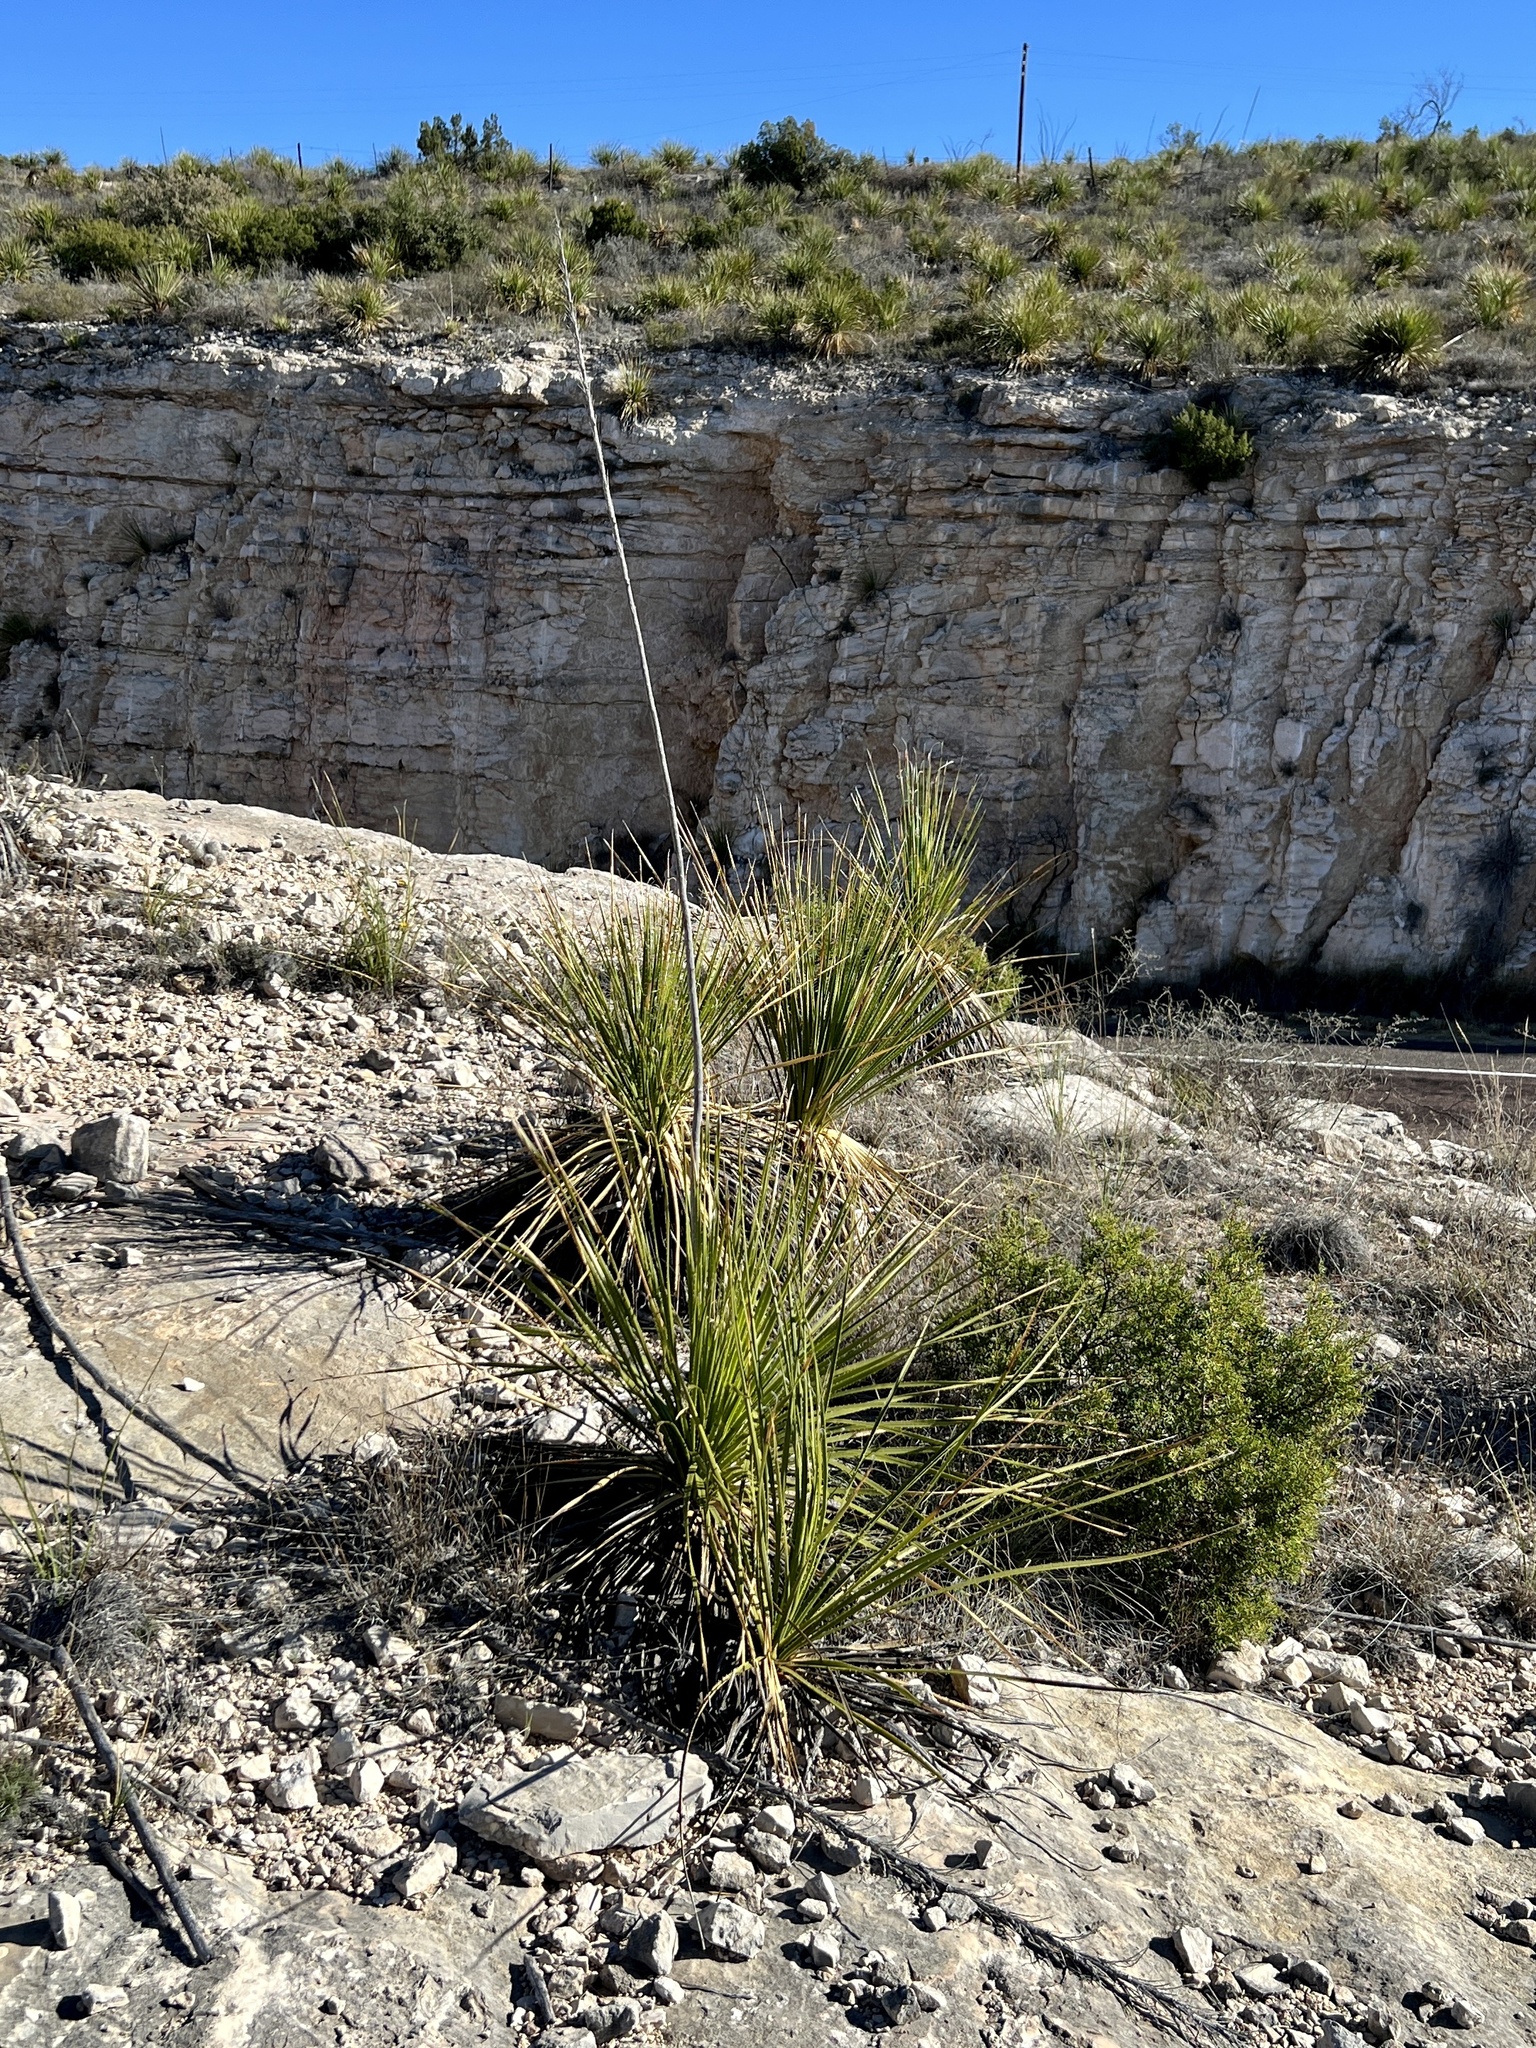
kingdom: Plantae
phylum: Tracheophyta
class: Liliopsida
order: Asparagales
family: Asparagaceae
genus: Dasylirion
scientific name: Dasylirion texanum
